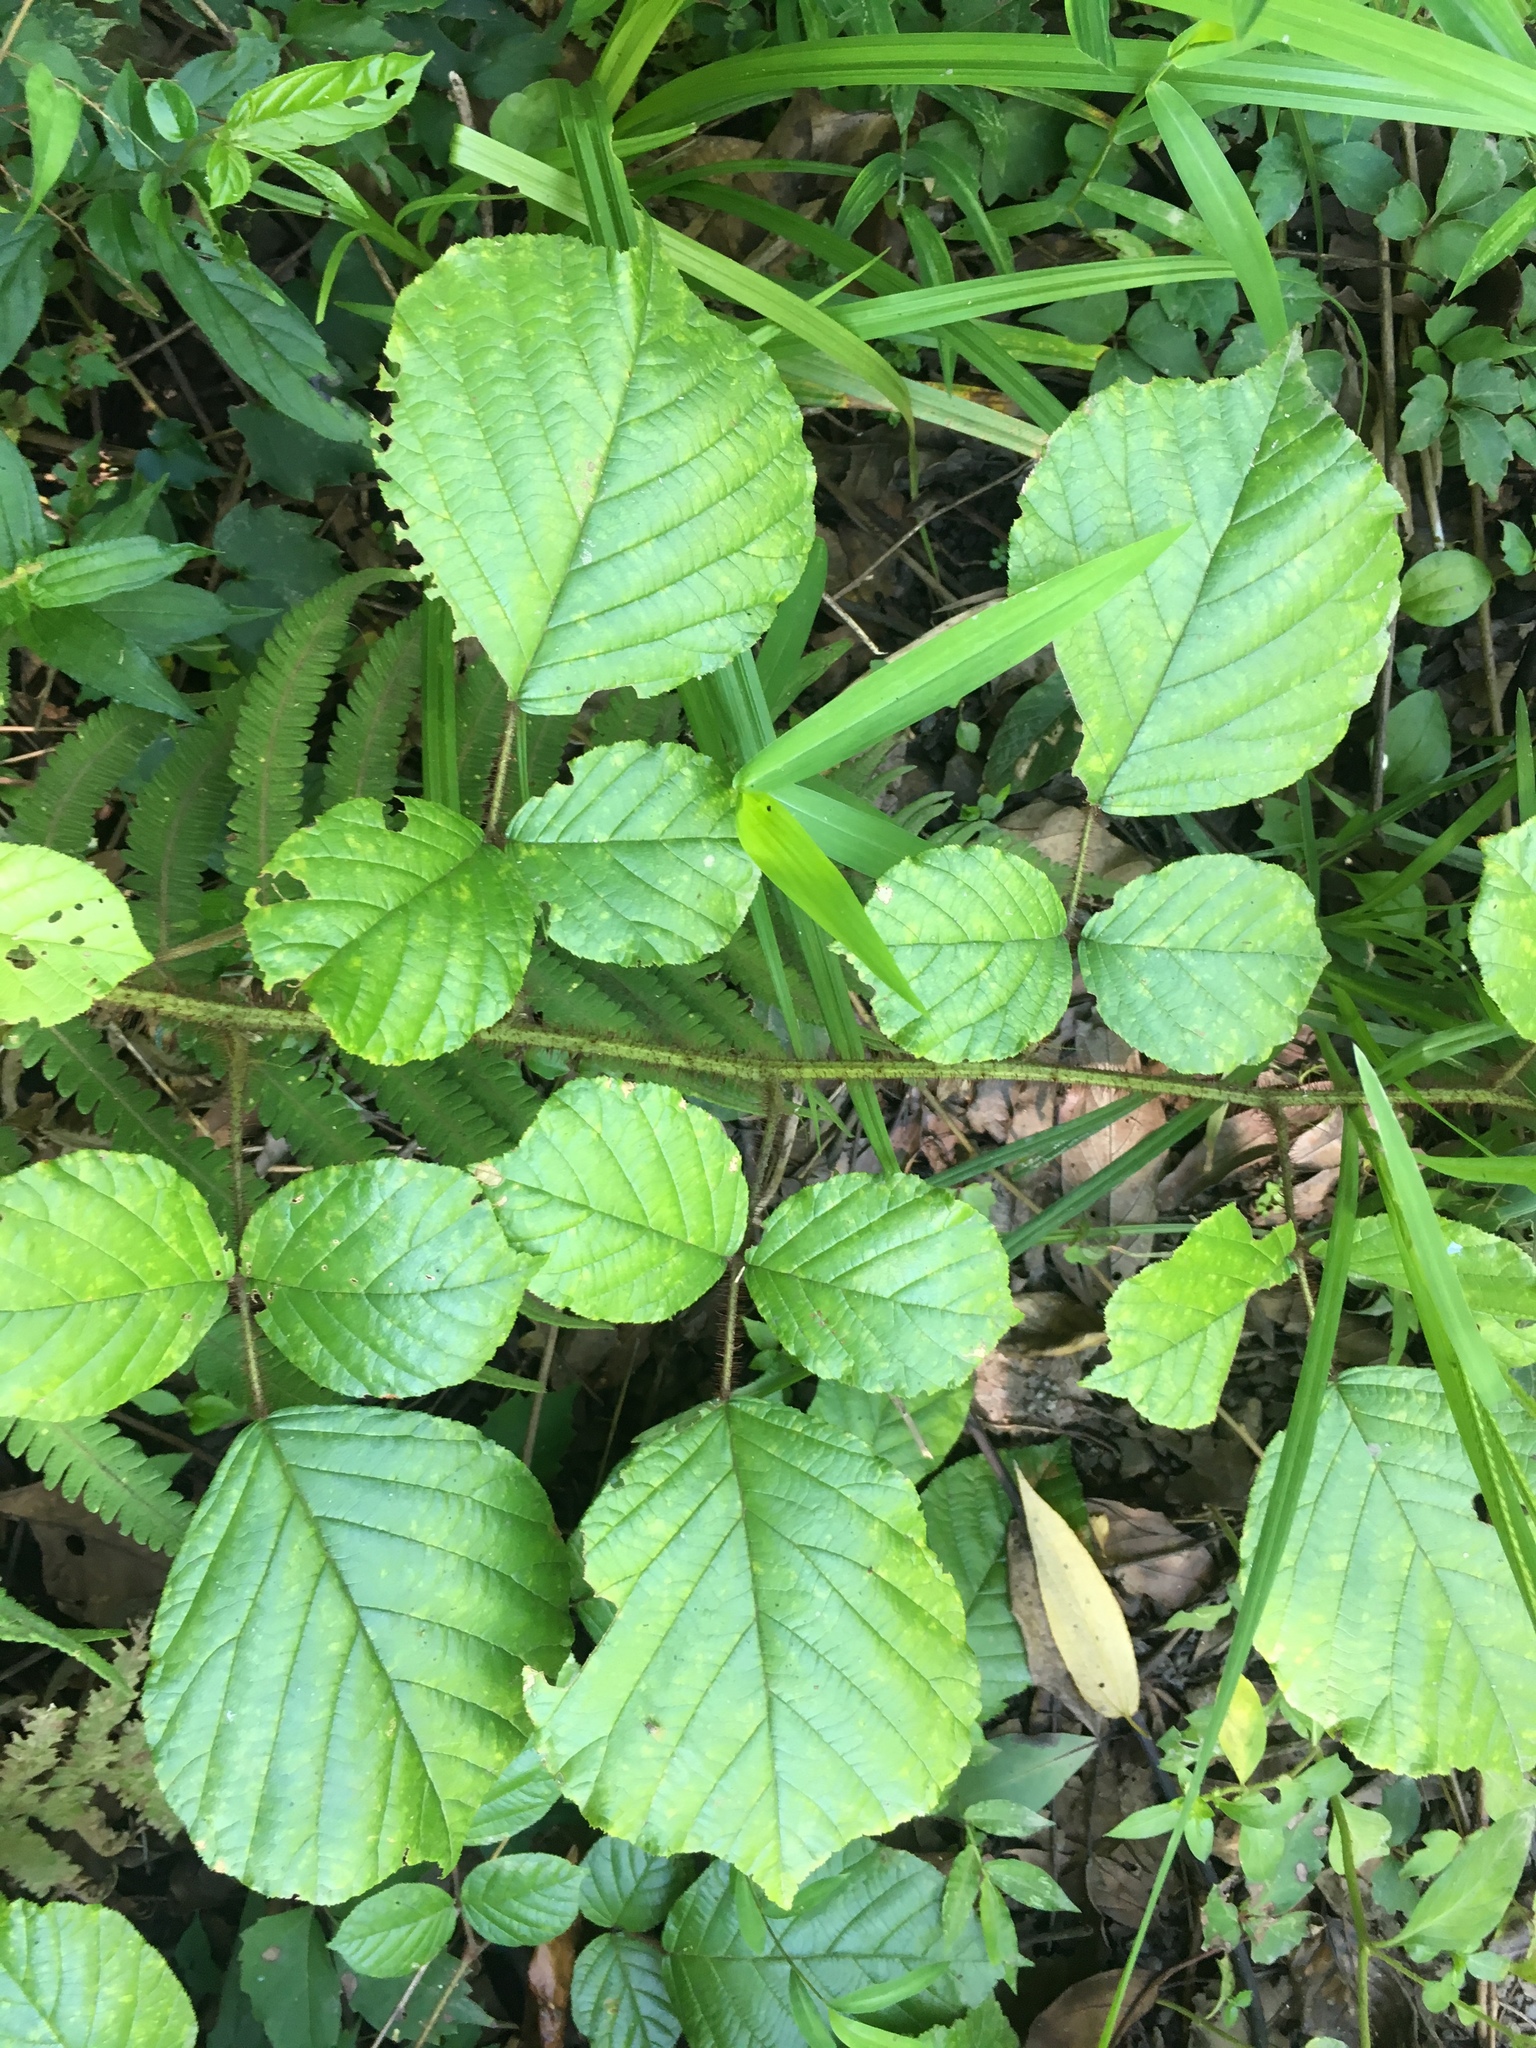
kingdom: Plantae
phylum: Tracheophyta
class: Magnoliopsida
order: Rosales
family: Rosaceae
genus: Rubus
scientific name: Rubus ellipticus
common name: Cheeseberry
